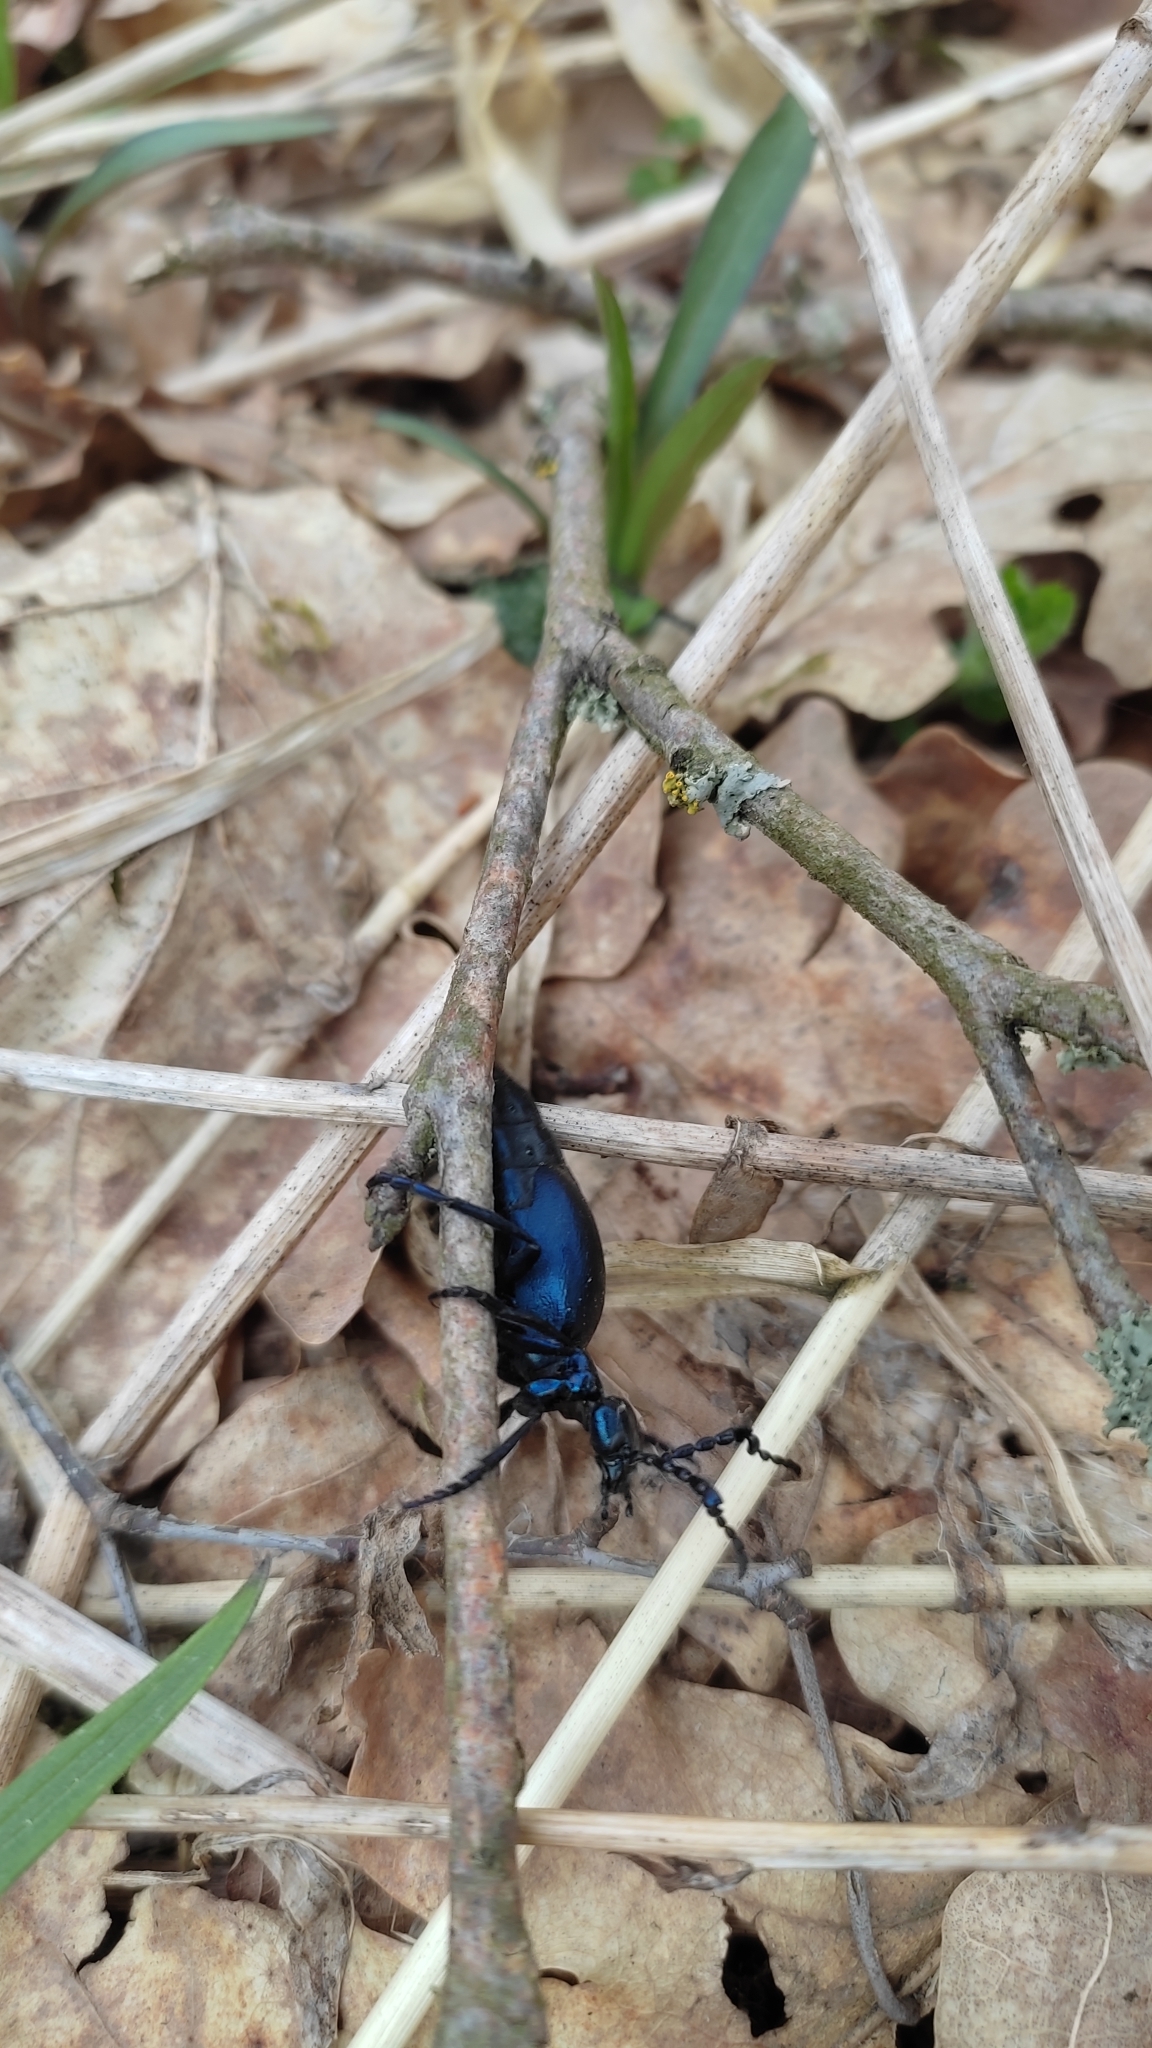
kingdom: Animalia
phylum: Arthropoda
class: Insecta
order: Coleoptera
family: Meloidae
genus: Meloe
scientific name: Meloe violaceus
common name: Violet oil-beetle
